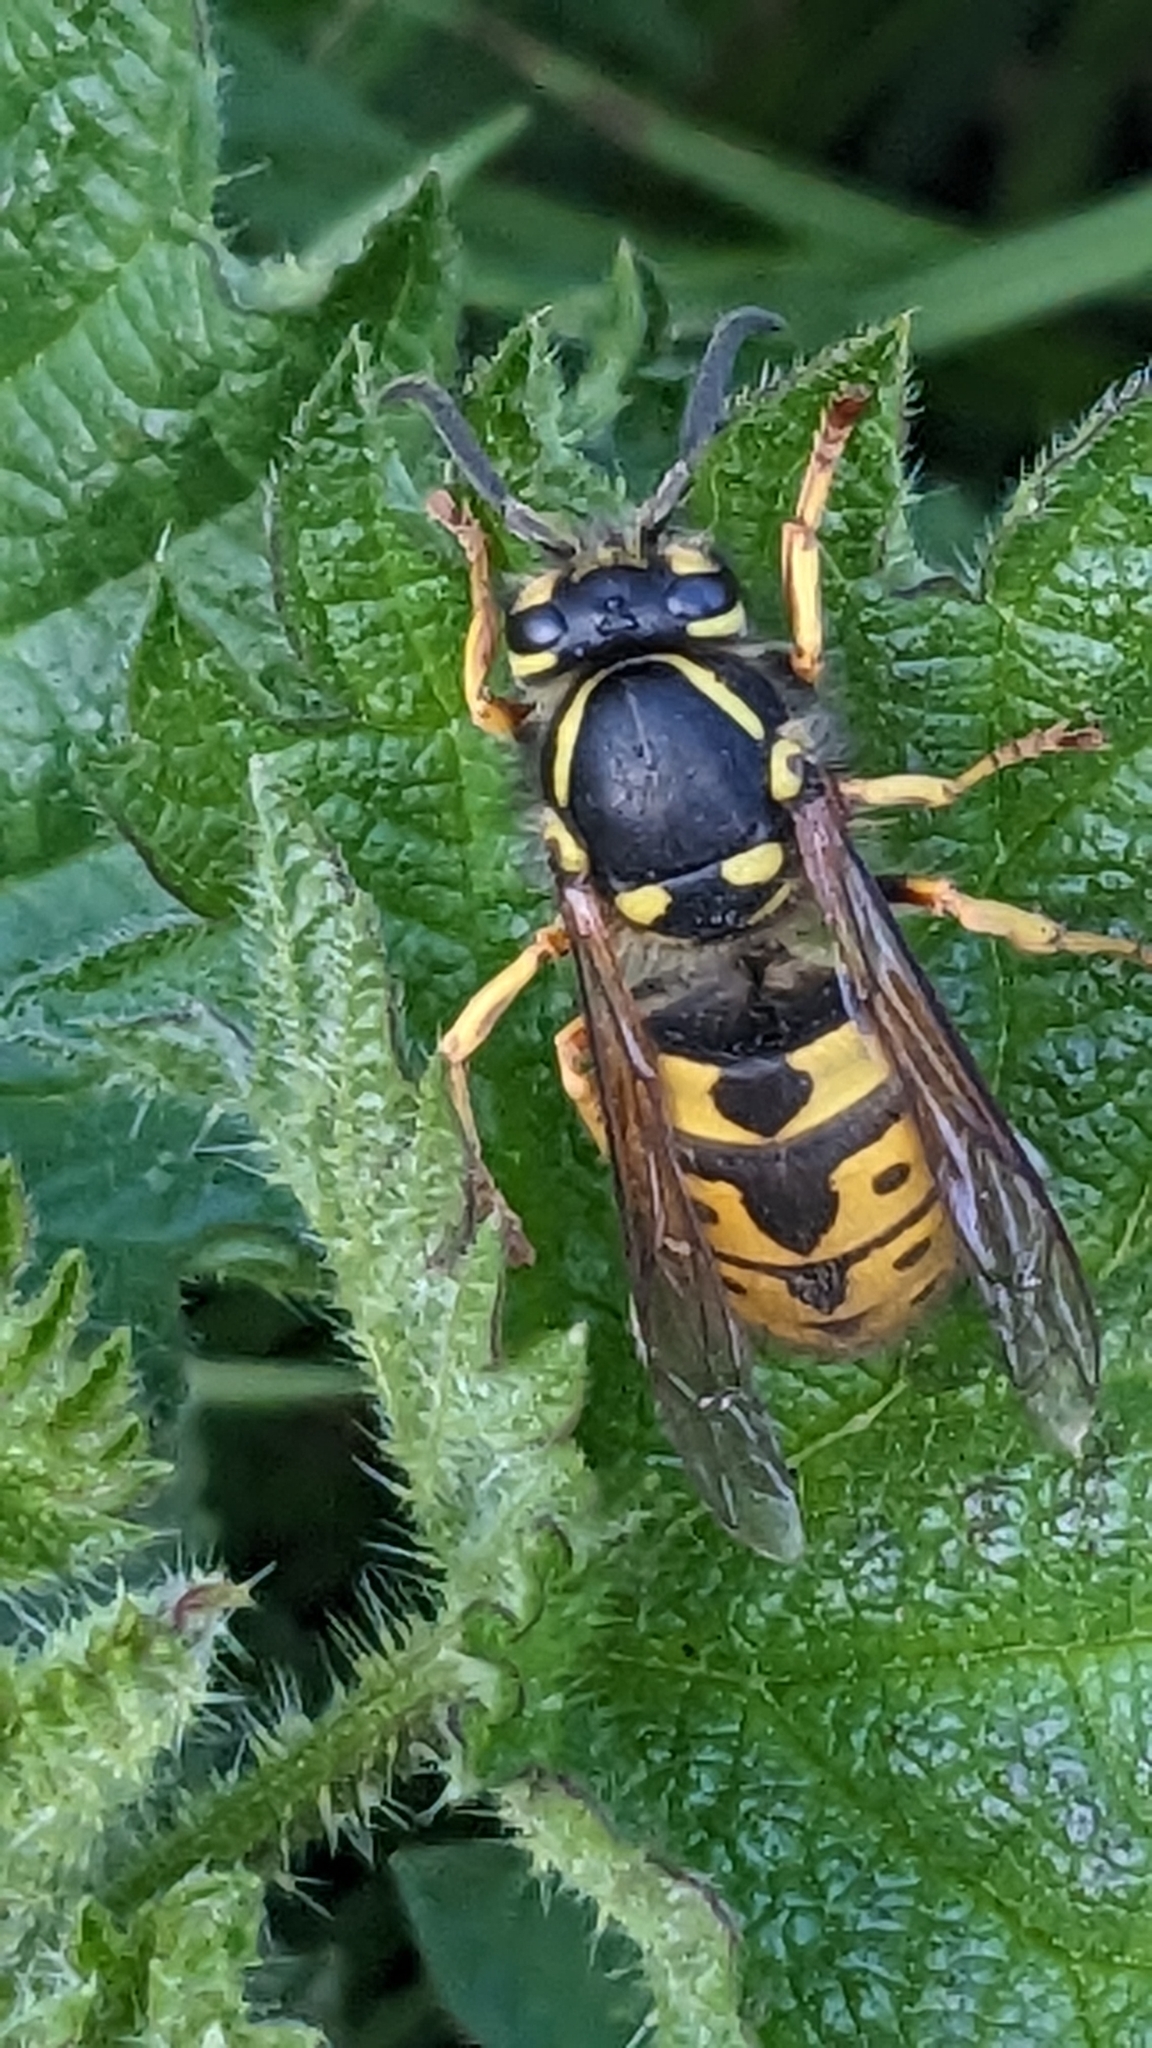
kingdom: Animalia
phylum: Arthropoda
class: Insecta
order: Hymenoptera
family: Vespidae
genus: Vespula
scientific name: Vespula germanica
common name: German wasp
